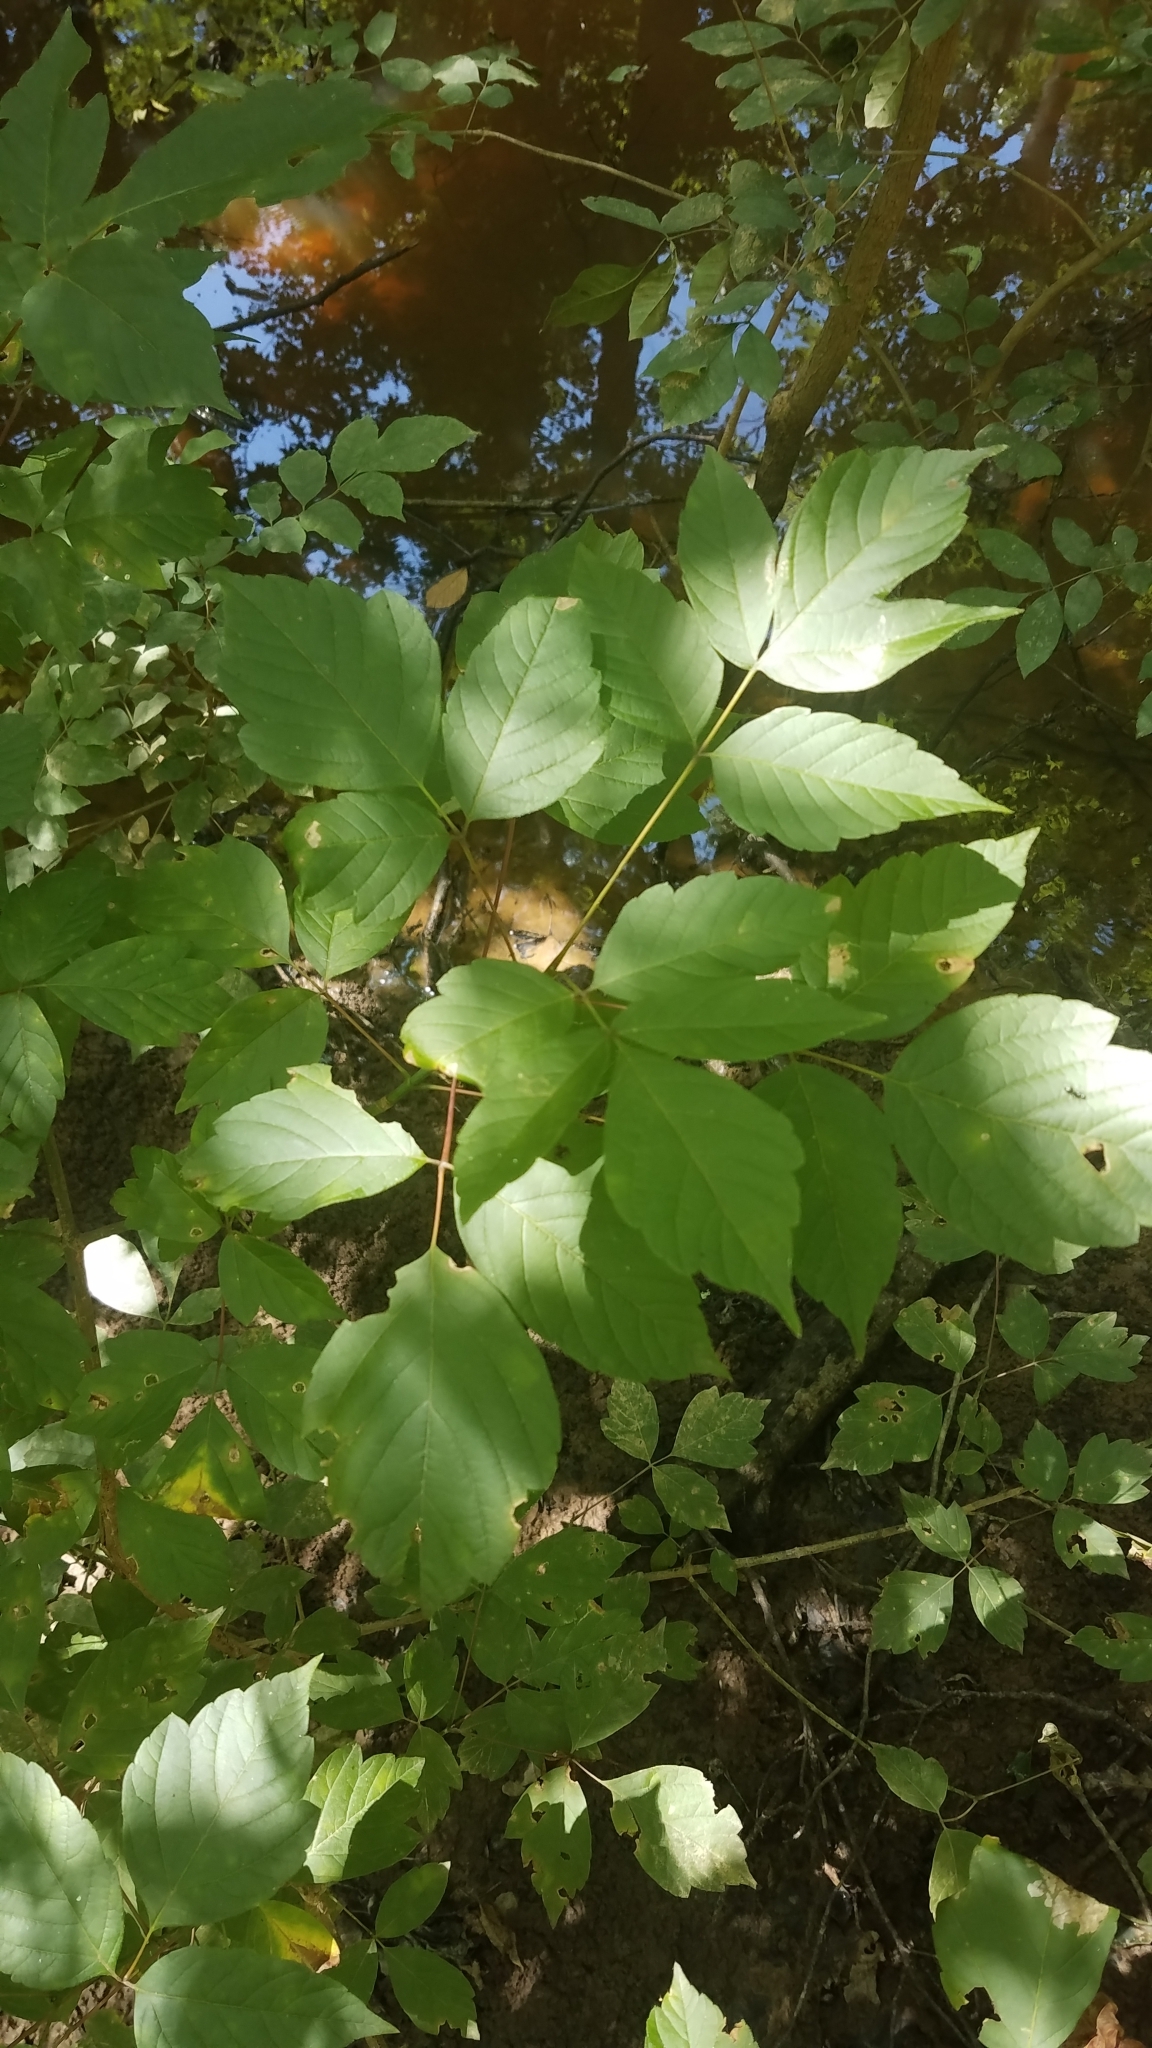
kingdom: Plantae
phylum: Tracheophyta
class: Magnoliopsida
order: Sapindales
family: Sapindaceae
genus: Acer
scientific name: Acer negundo
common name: Ashleaf maple
